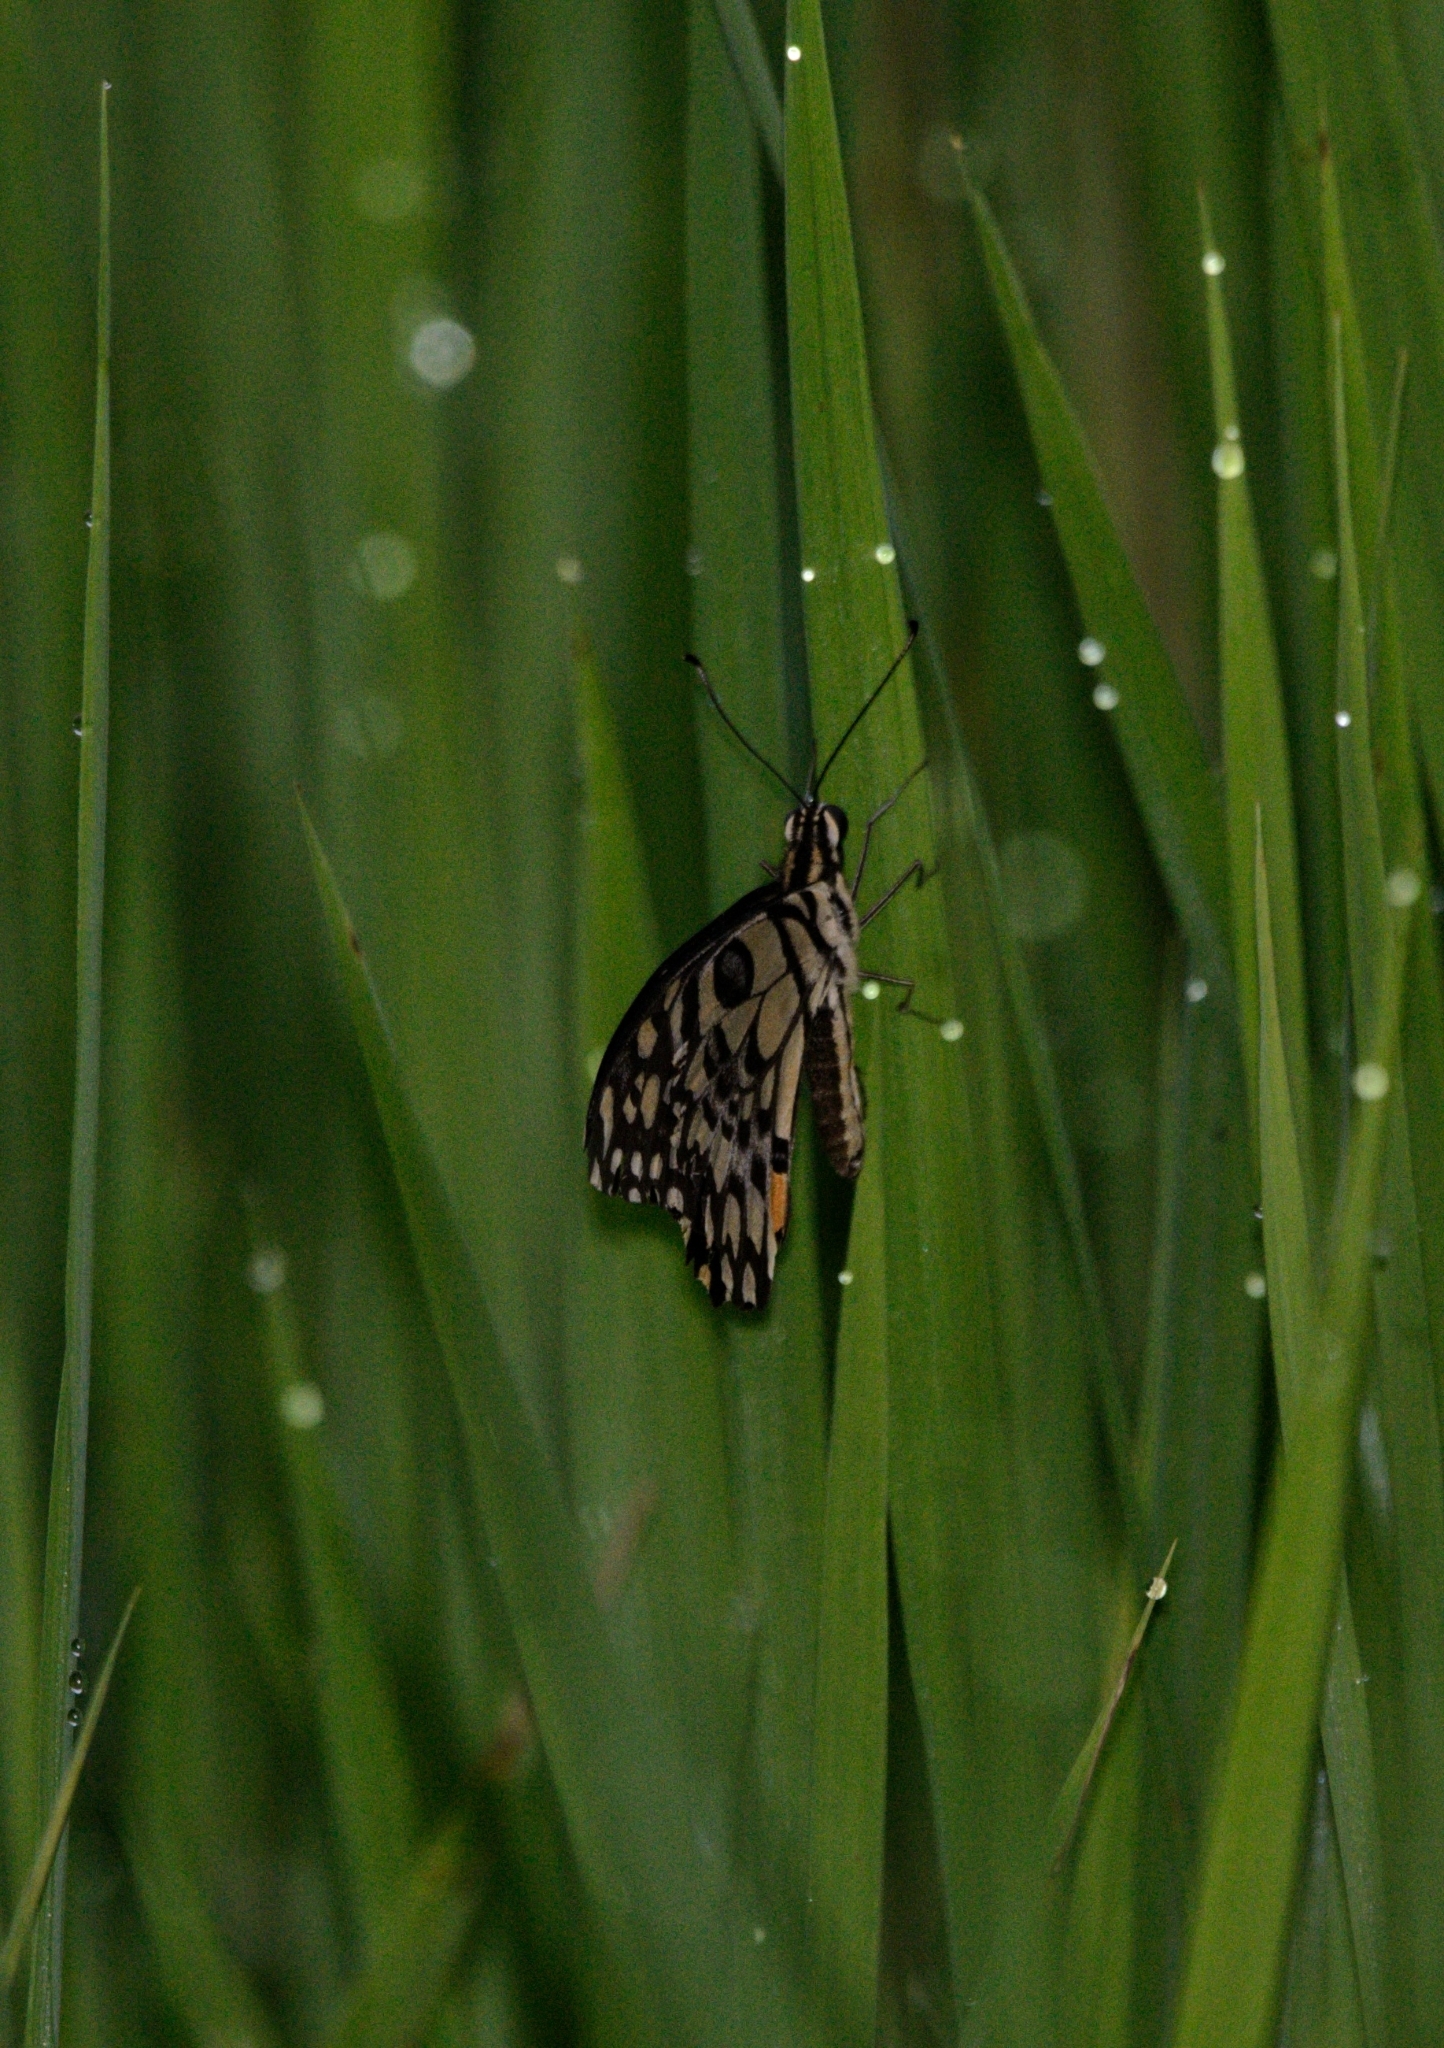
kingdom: Animalia
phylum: Arthropoda
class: Insecta
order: Lepidoptera
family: Papilionidae
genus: Papilio
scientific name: Papilio demoleus
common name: Lime butterfly
